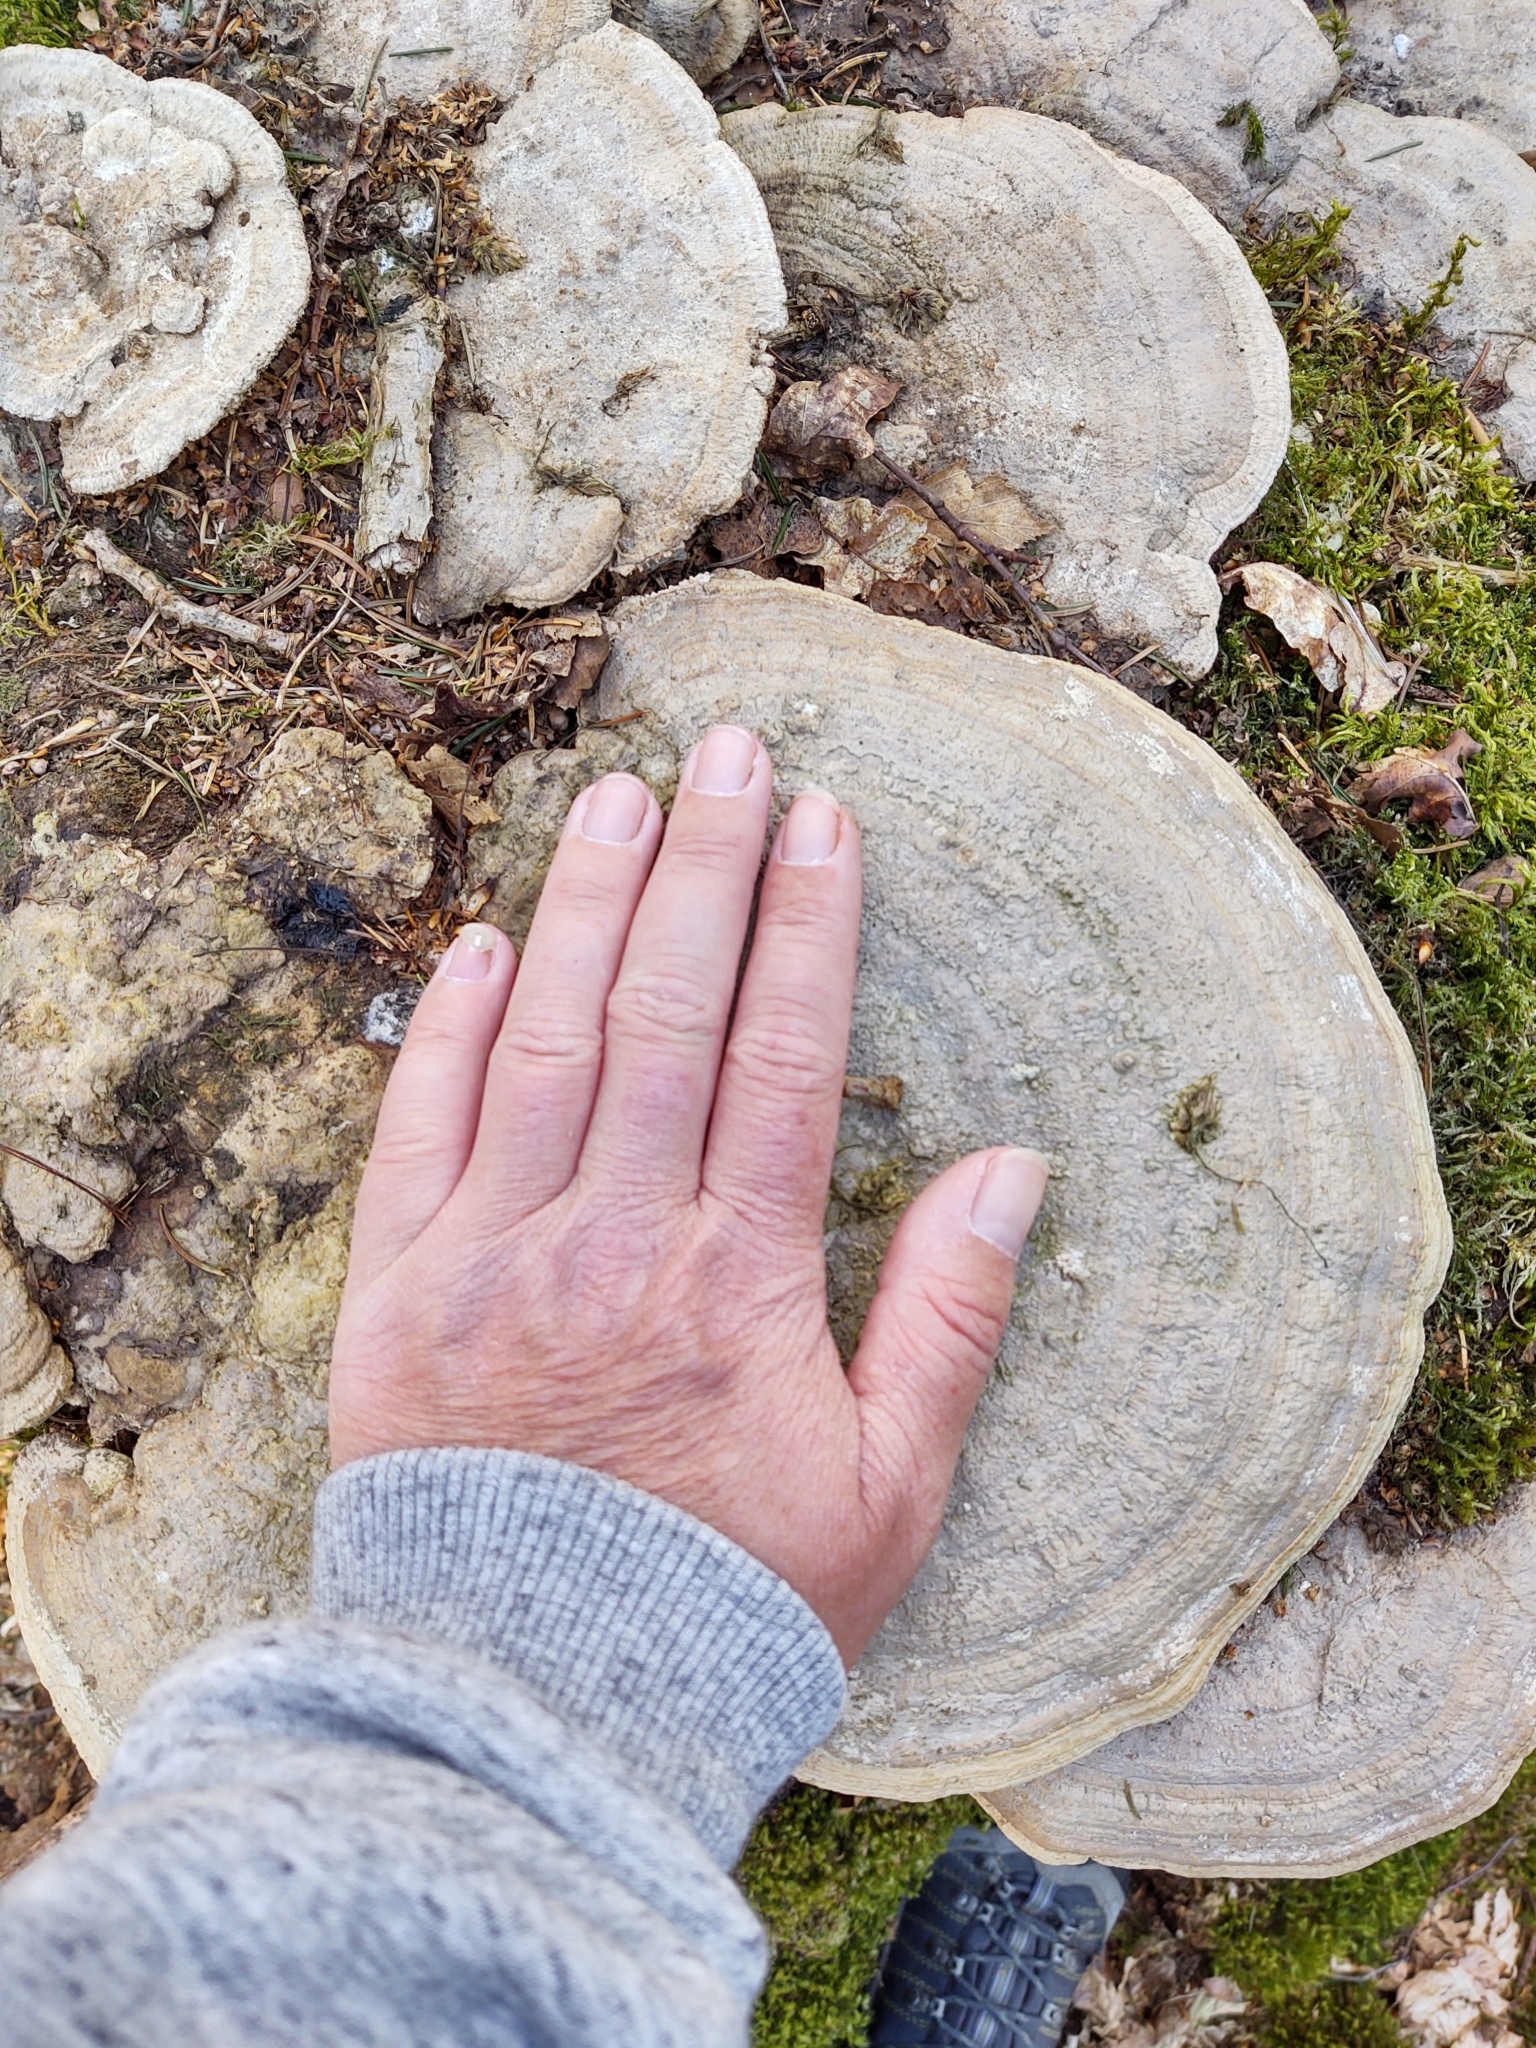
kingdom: Fungi
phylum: Basidiomycota
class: Agaricomycetes
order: Polyporales
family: Fomitopsidaceae
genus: Fomitopsis
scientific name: Fomitopsis
